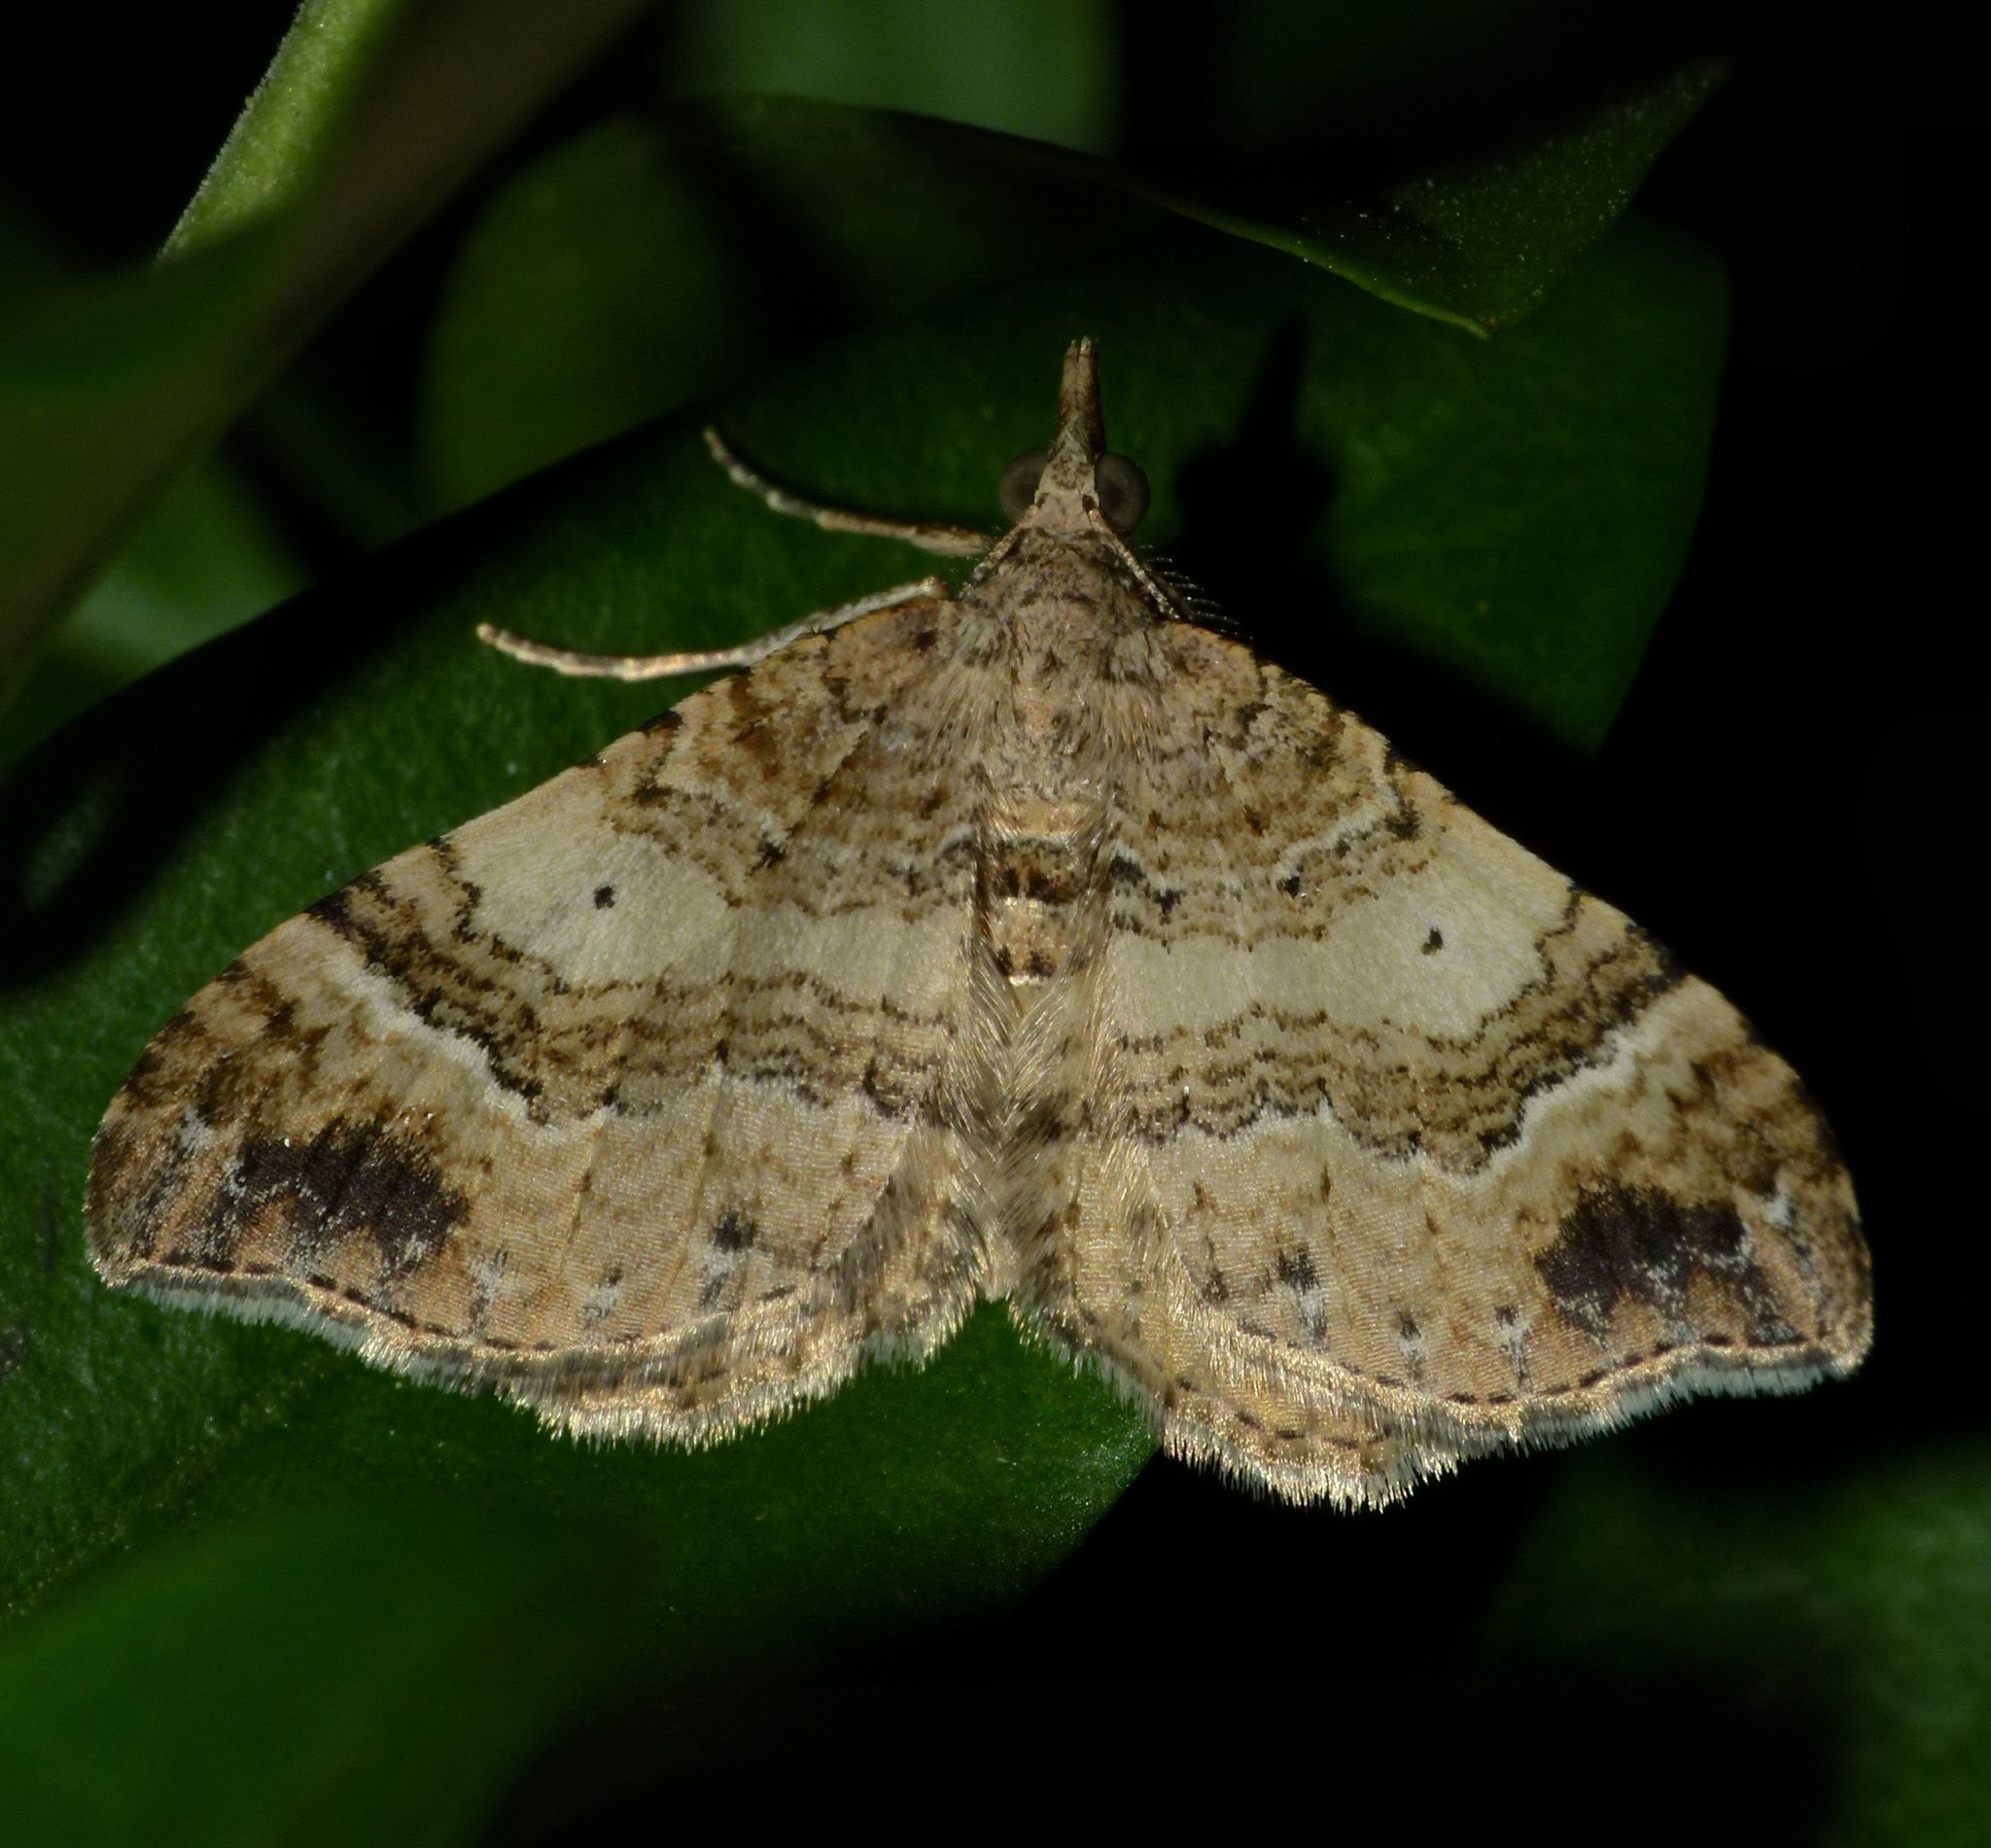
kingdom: Animalia
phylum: Arthropoda
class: Insecta
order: Lepidoptera
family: Geometridae
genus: Homodotis
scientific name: Homodotis megaspilata
